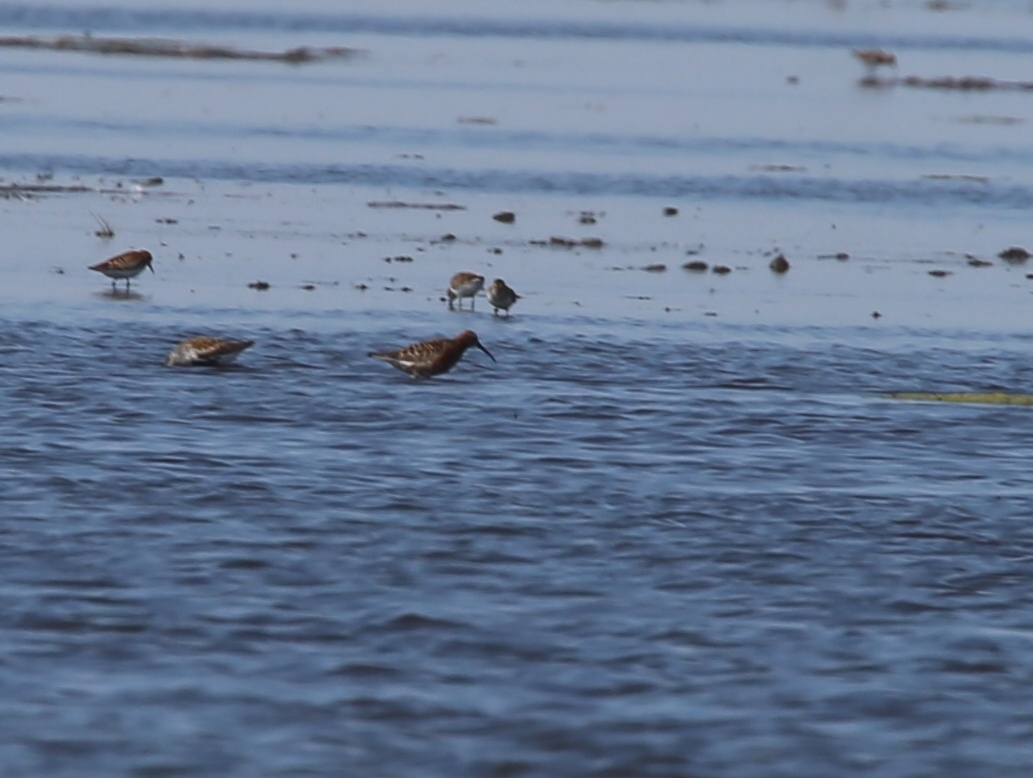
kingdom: Animalia
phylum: Chordata
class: Aves
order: Charadriiformes
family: Scolopacidae
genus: Calidris
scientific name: Calidris ferruginea
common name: Curlew sandpiper
